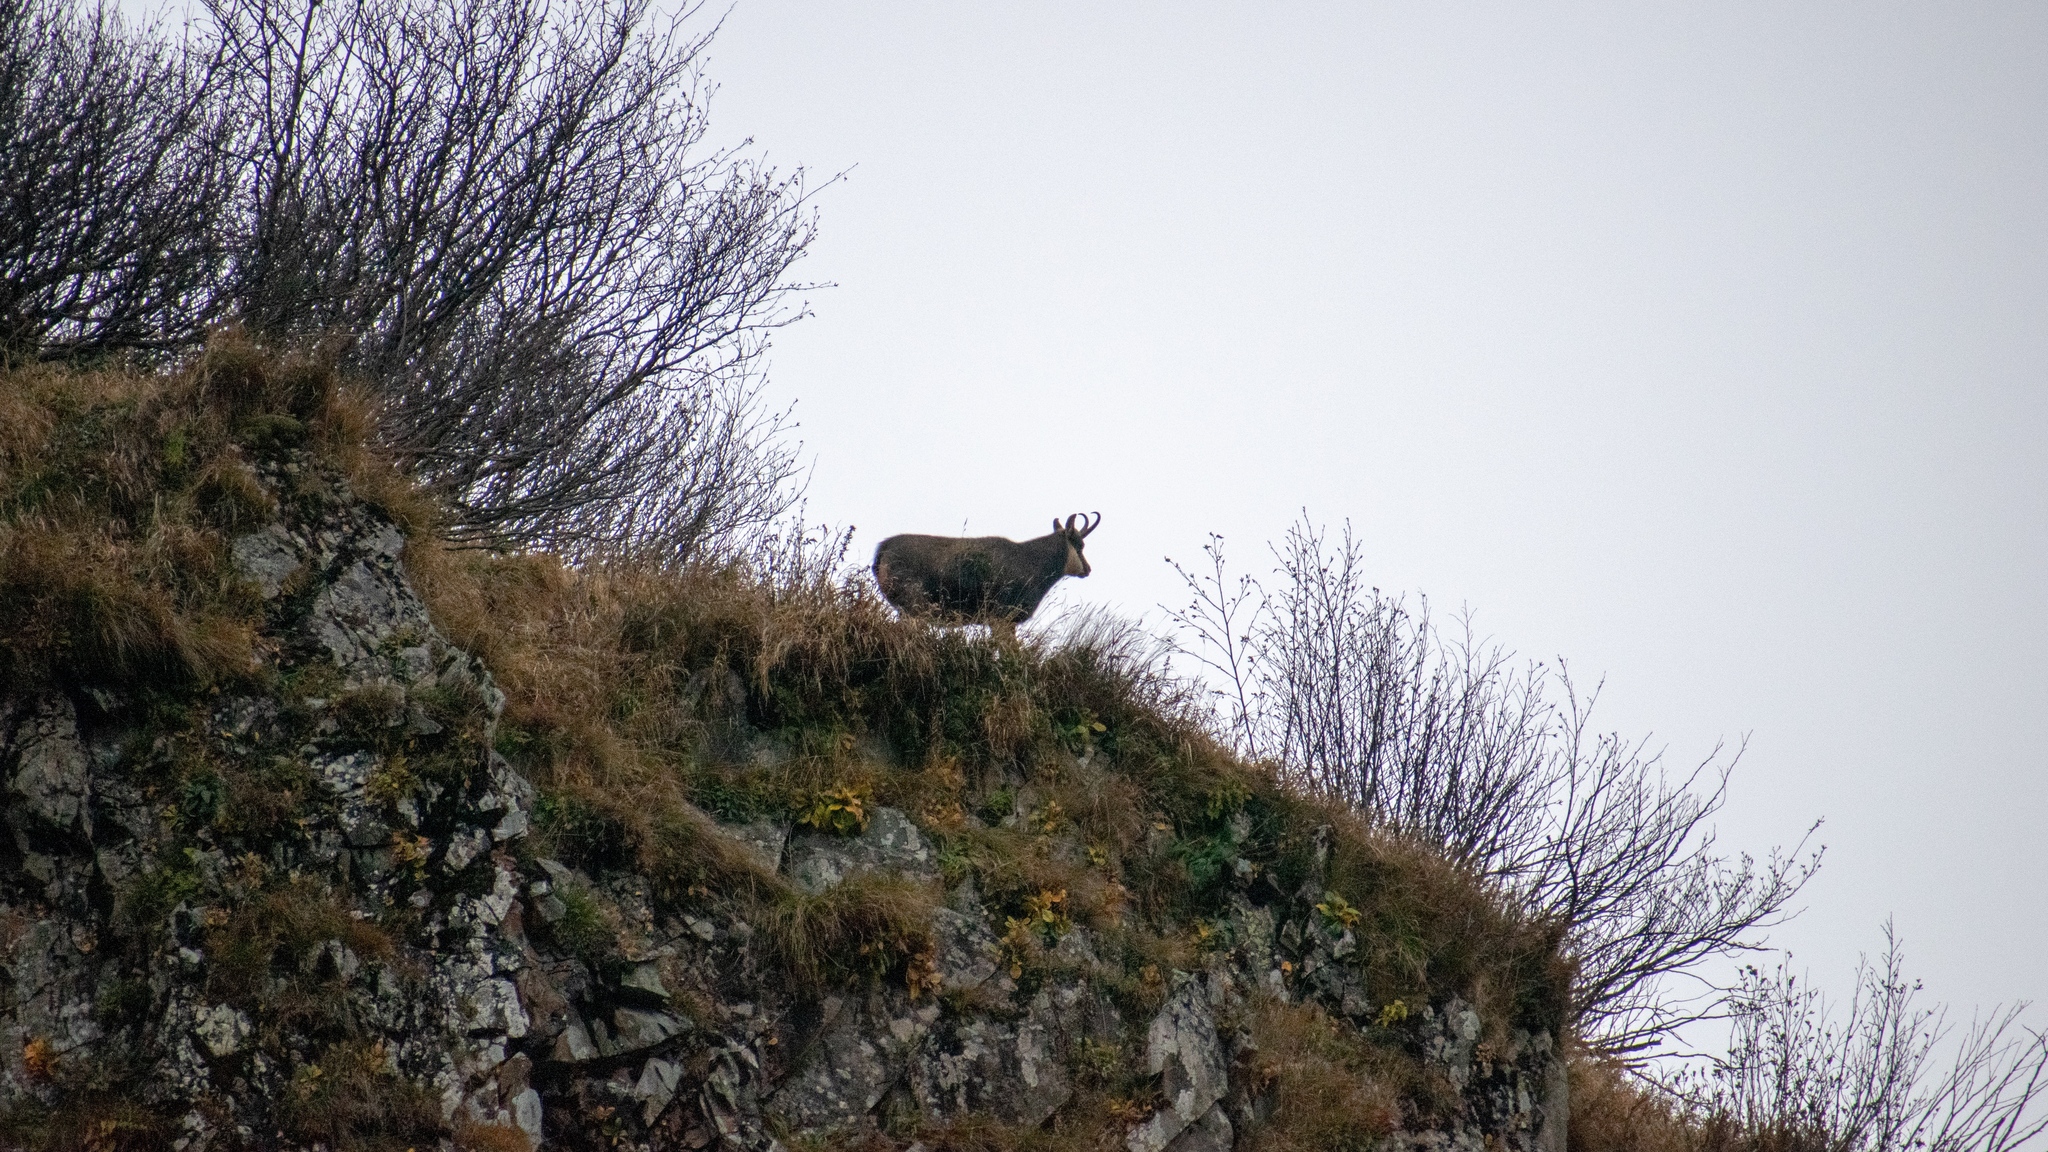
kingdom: Animalia
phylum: Chordata
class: Mammalia
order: Artiodactyla
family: Bovidae
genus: Rupicapra
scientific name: Rupicapra rupicapra
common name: Chamois
